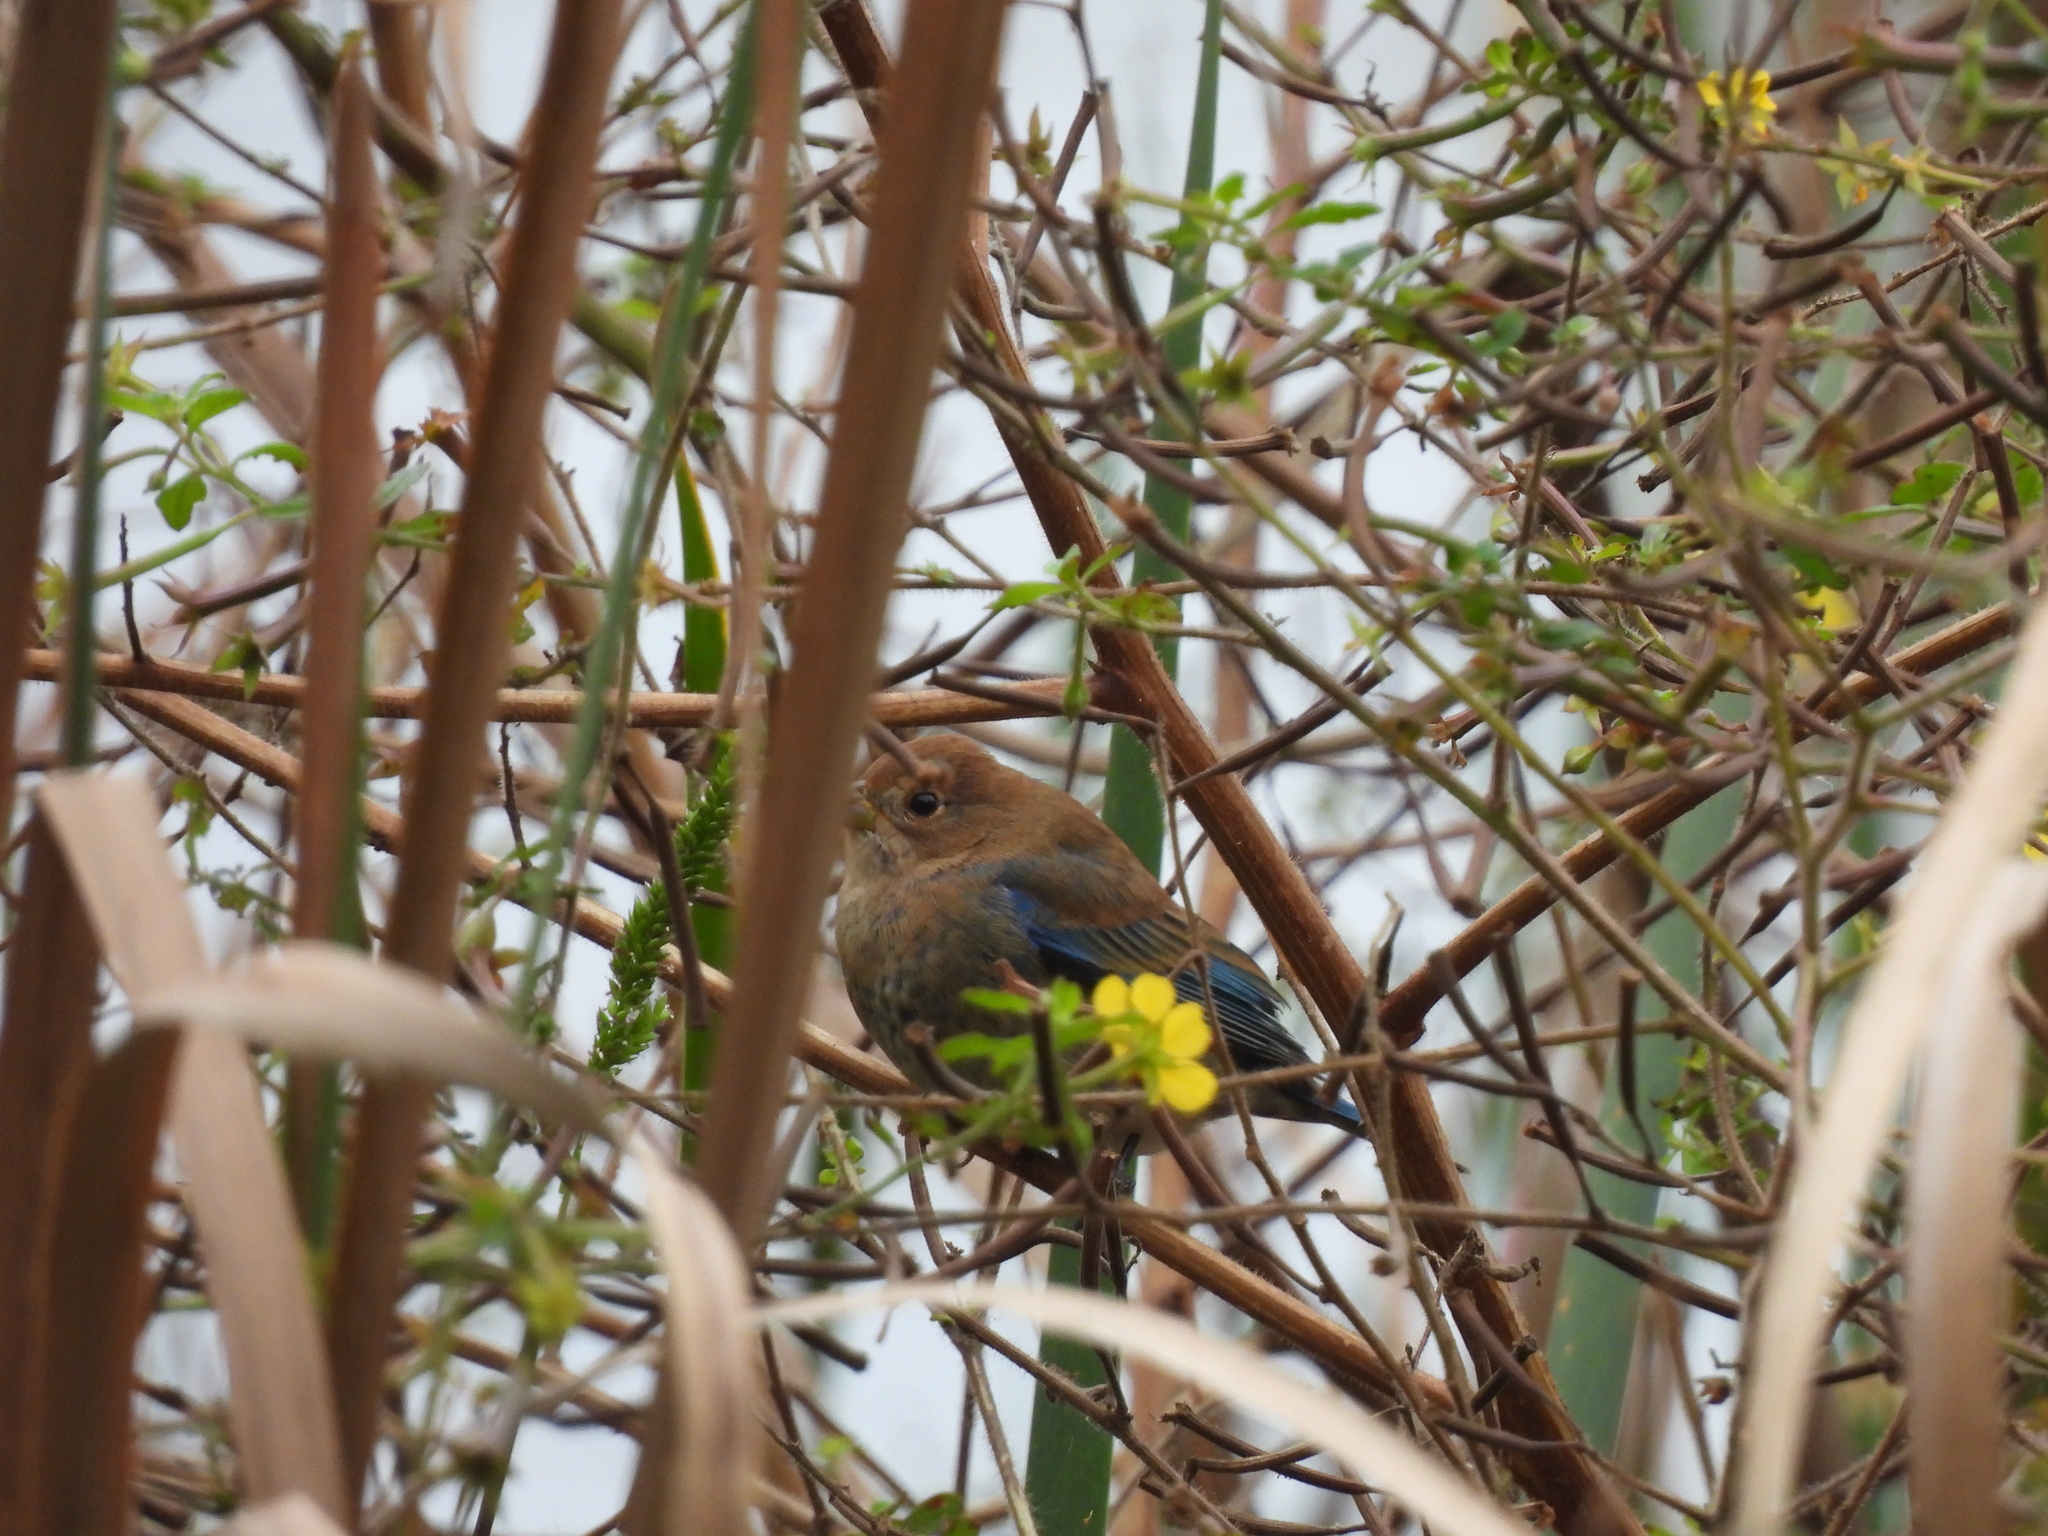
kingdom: Animalia
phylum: Chordata
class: Aves
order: Passeriformes
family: Cardinalidae
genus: Passerina
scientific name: Passerina cyanea
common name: Indigo bunting
